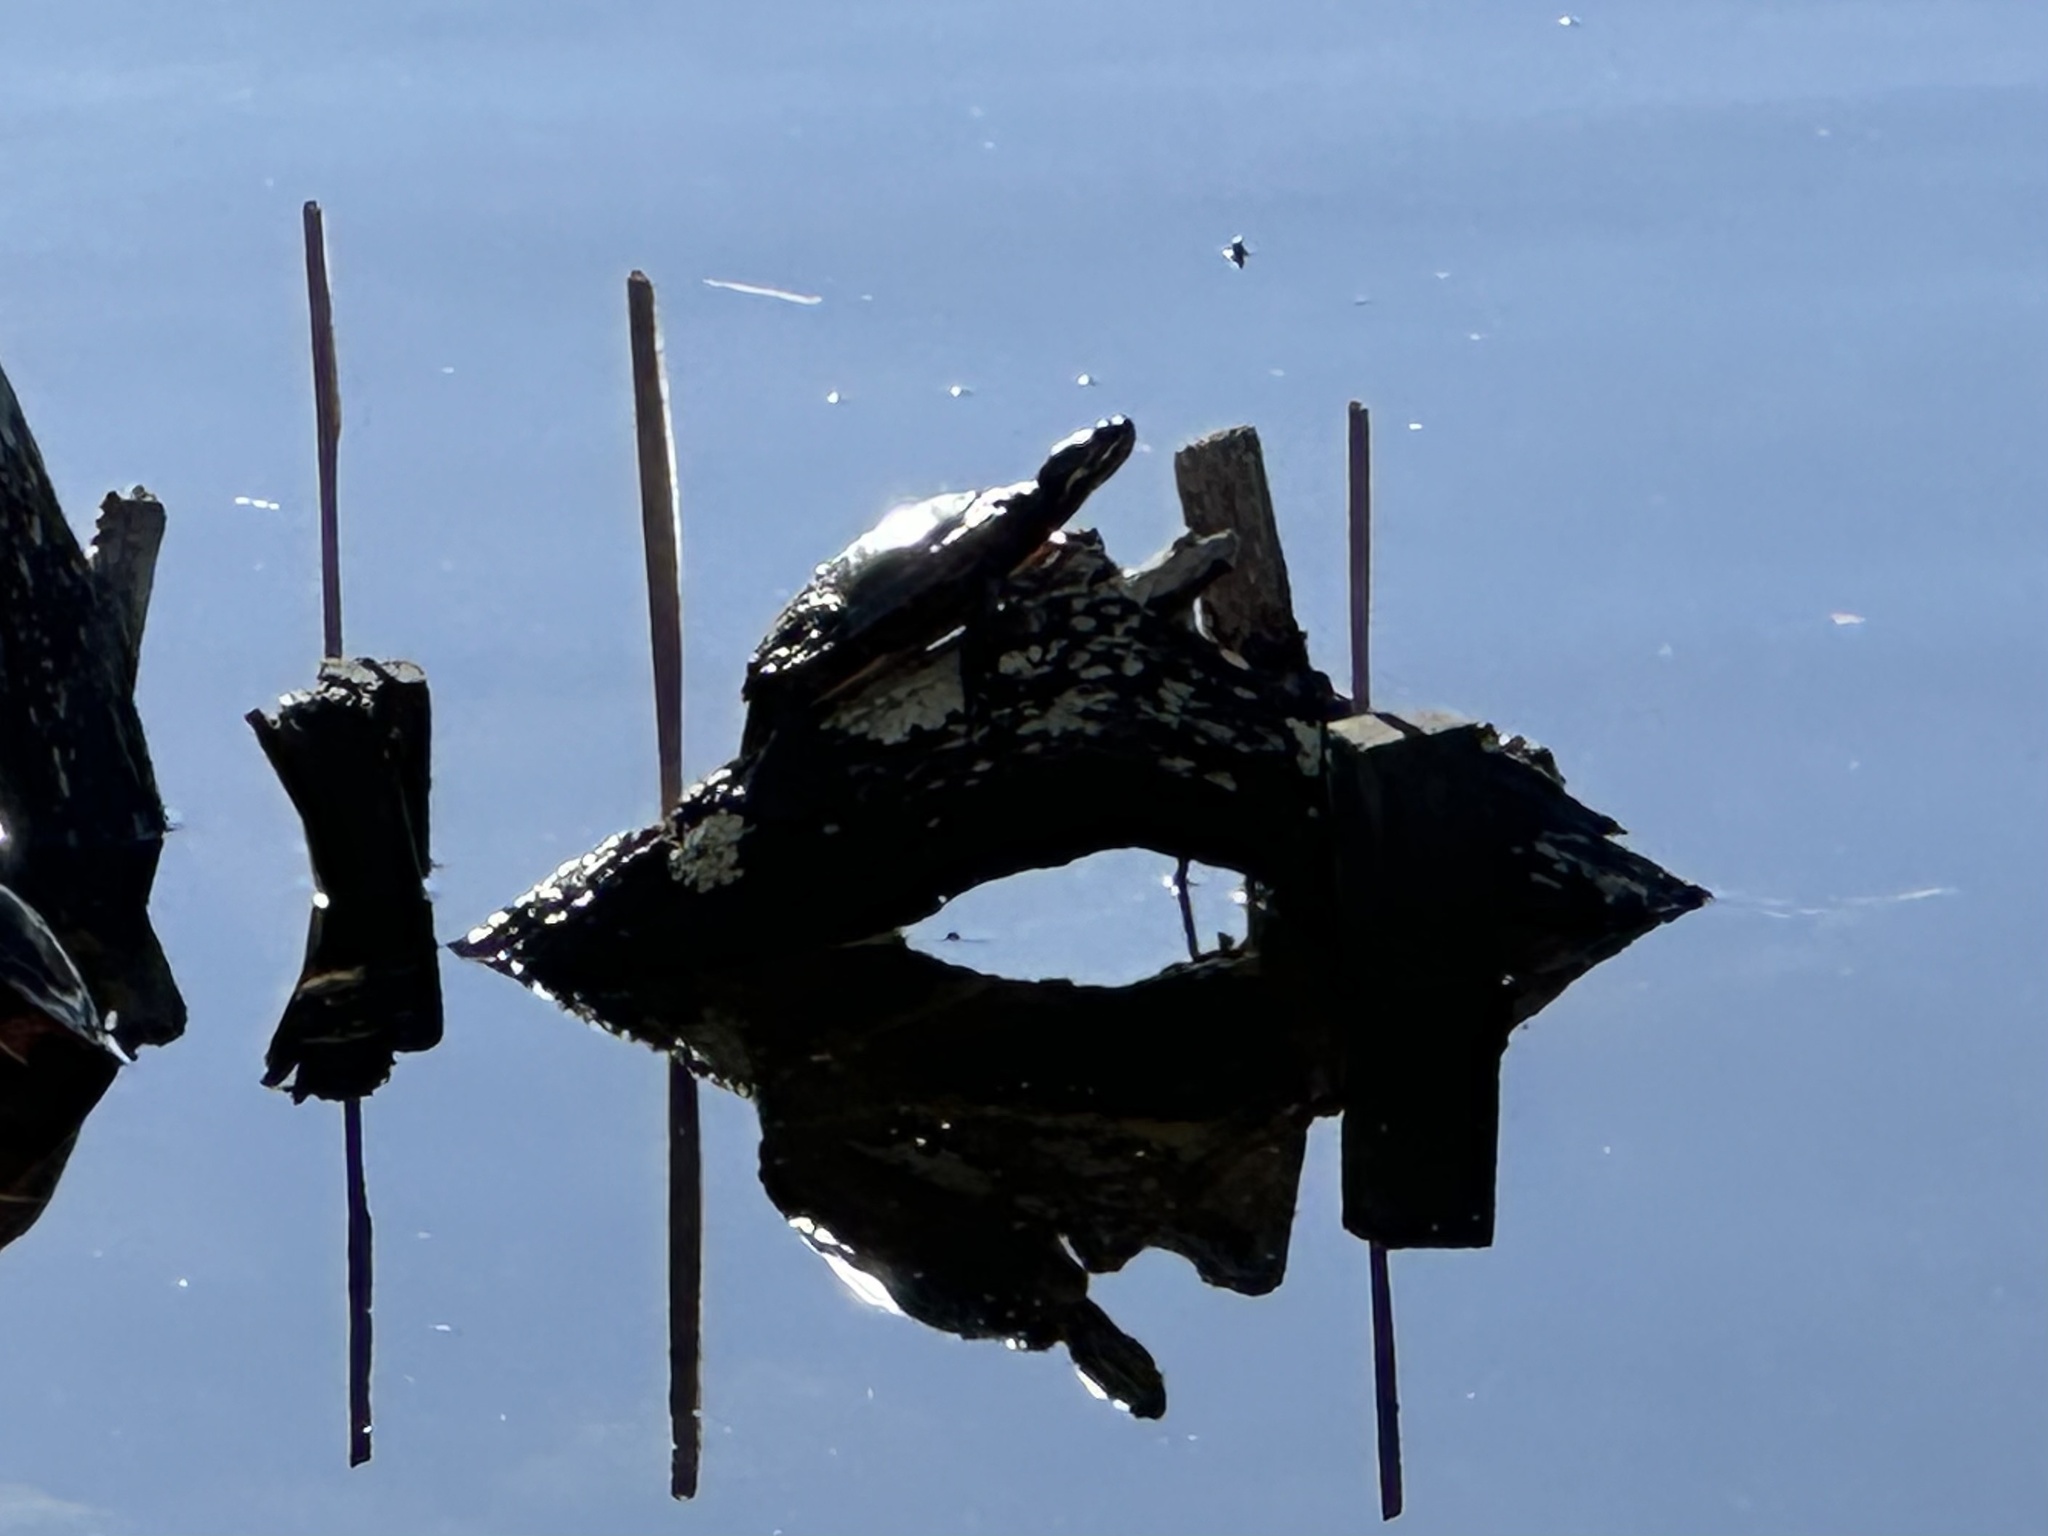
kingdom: Animalia
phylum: Chordata
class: Testudines
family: Emydidae
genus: Chrysemys
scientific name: Chrysemys picta
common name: Painted turtle
